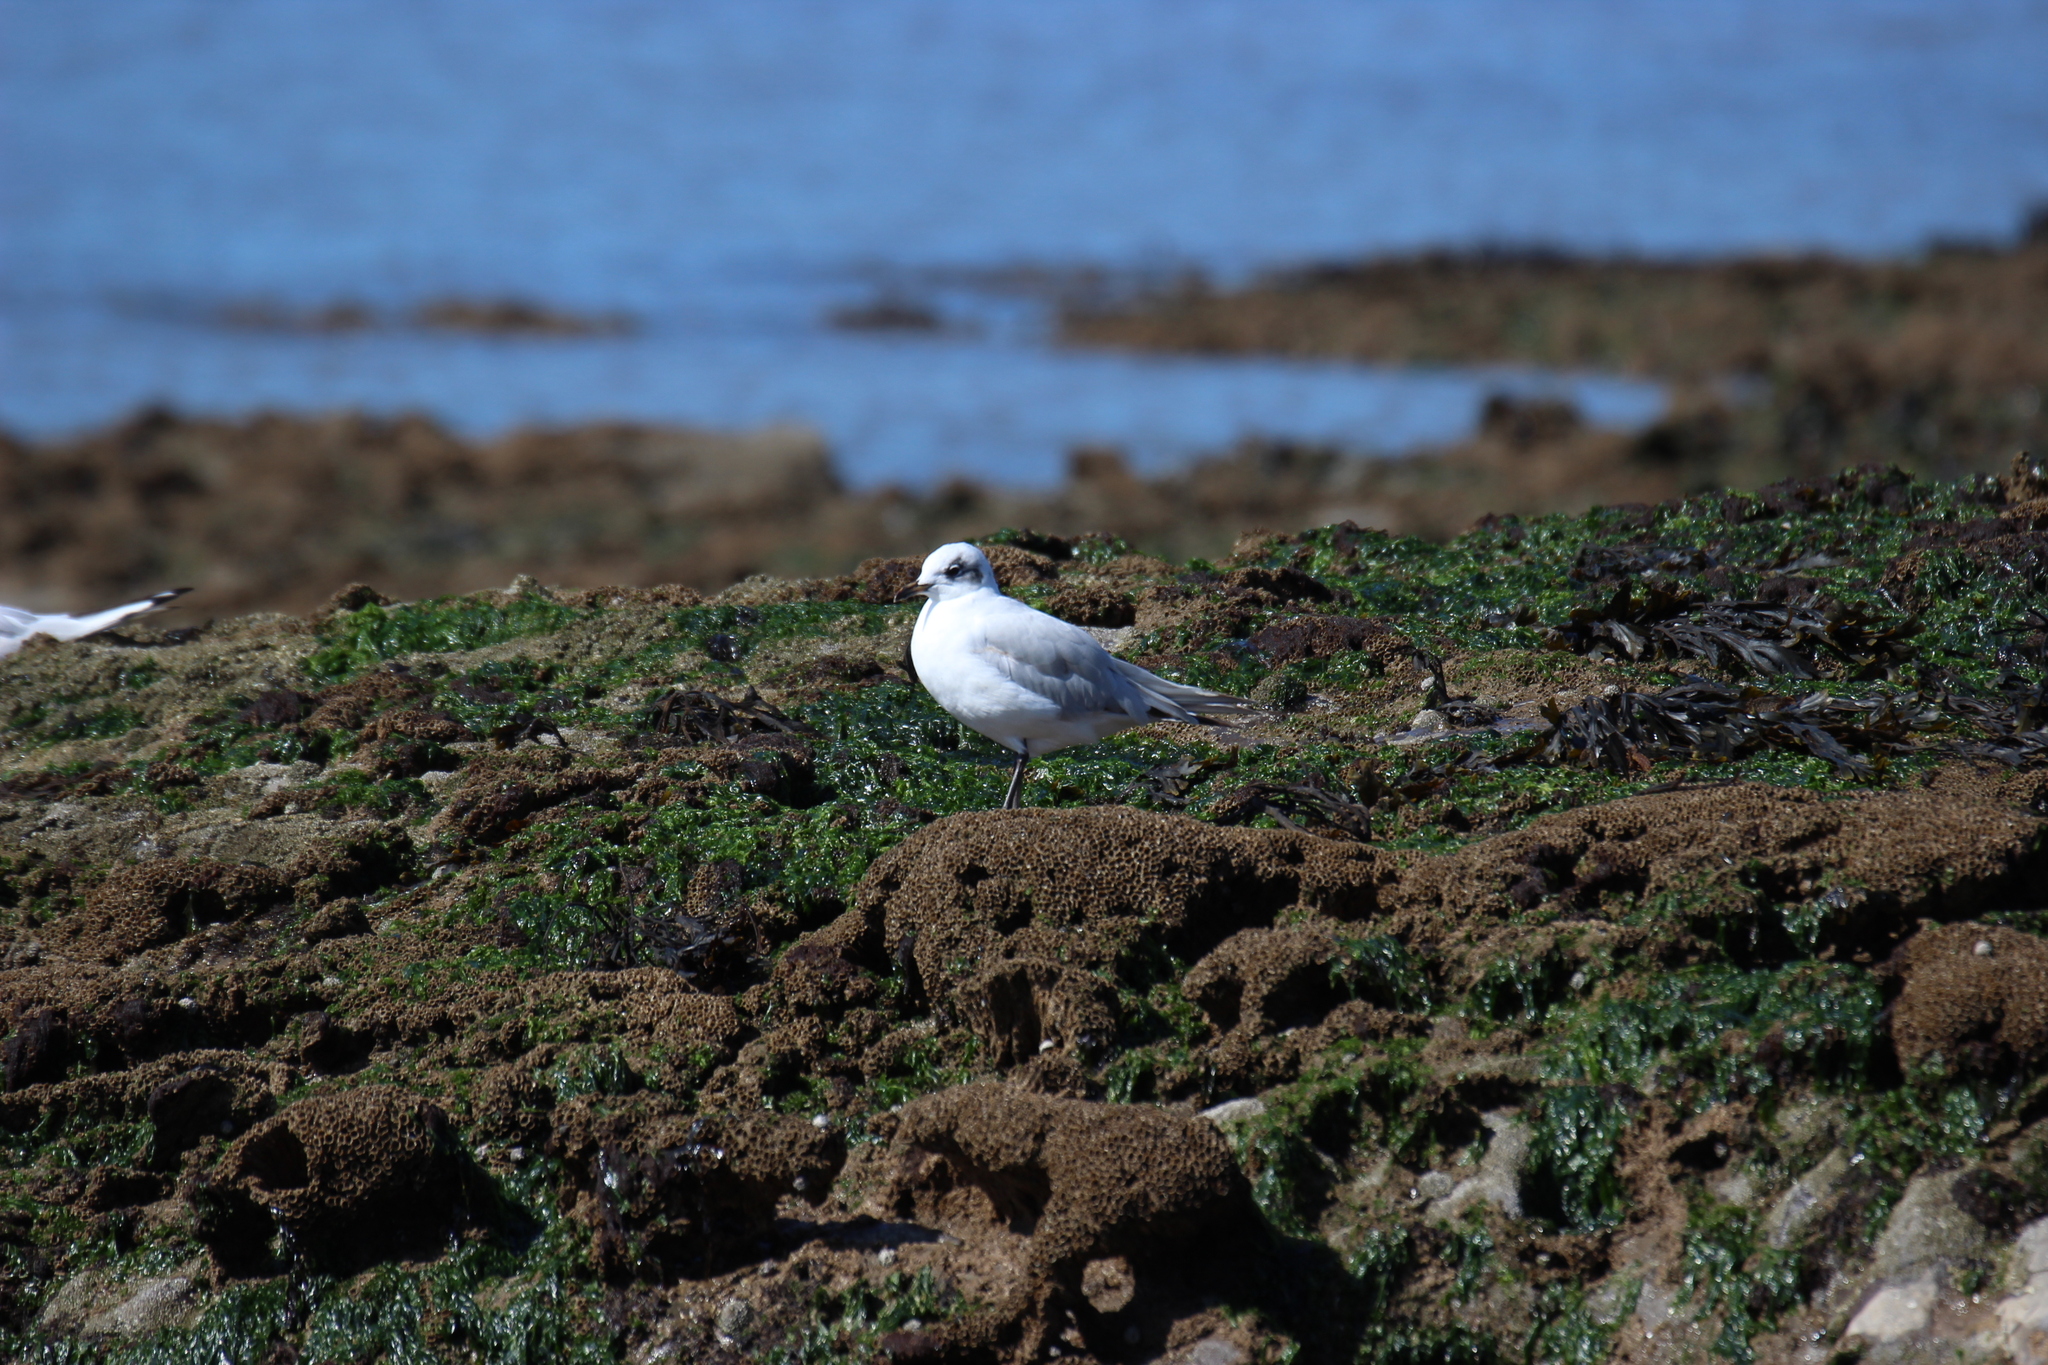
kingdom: Animalia
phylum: Chordata
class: Aves
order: Charadriiformes
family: Laridae
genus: Ichthyaetus
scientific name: Ichthyaetus melanocephalus
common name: Mediterranean gull
